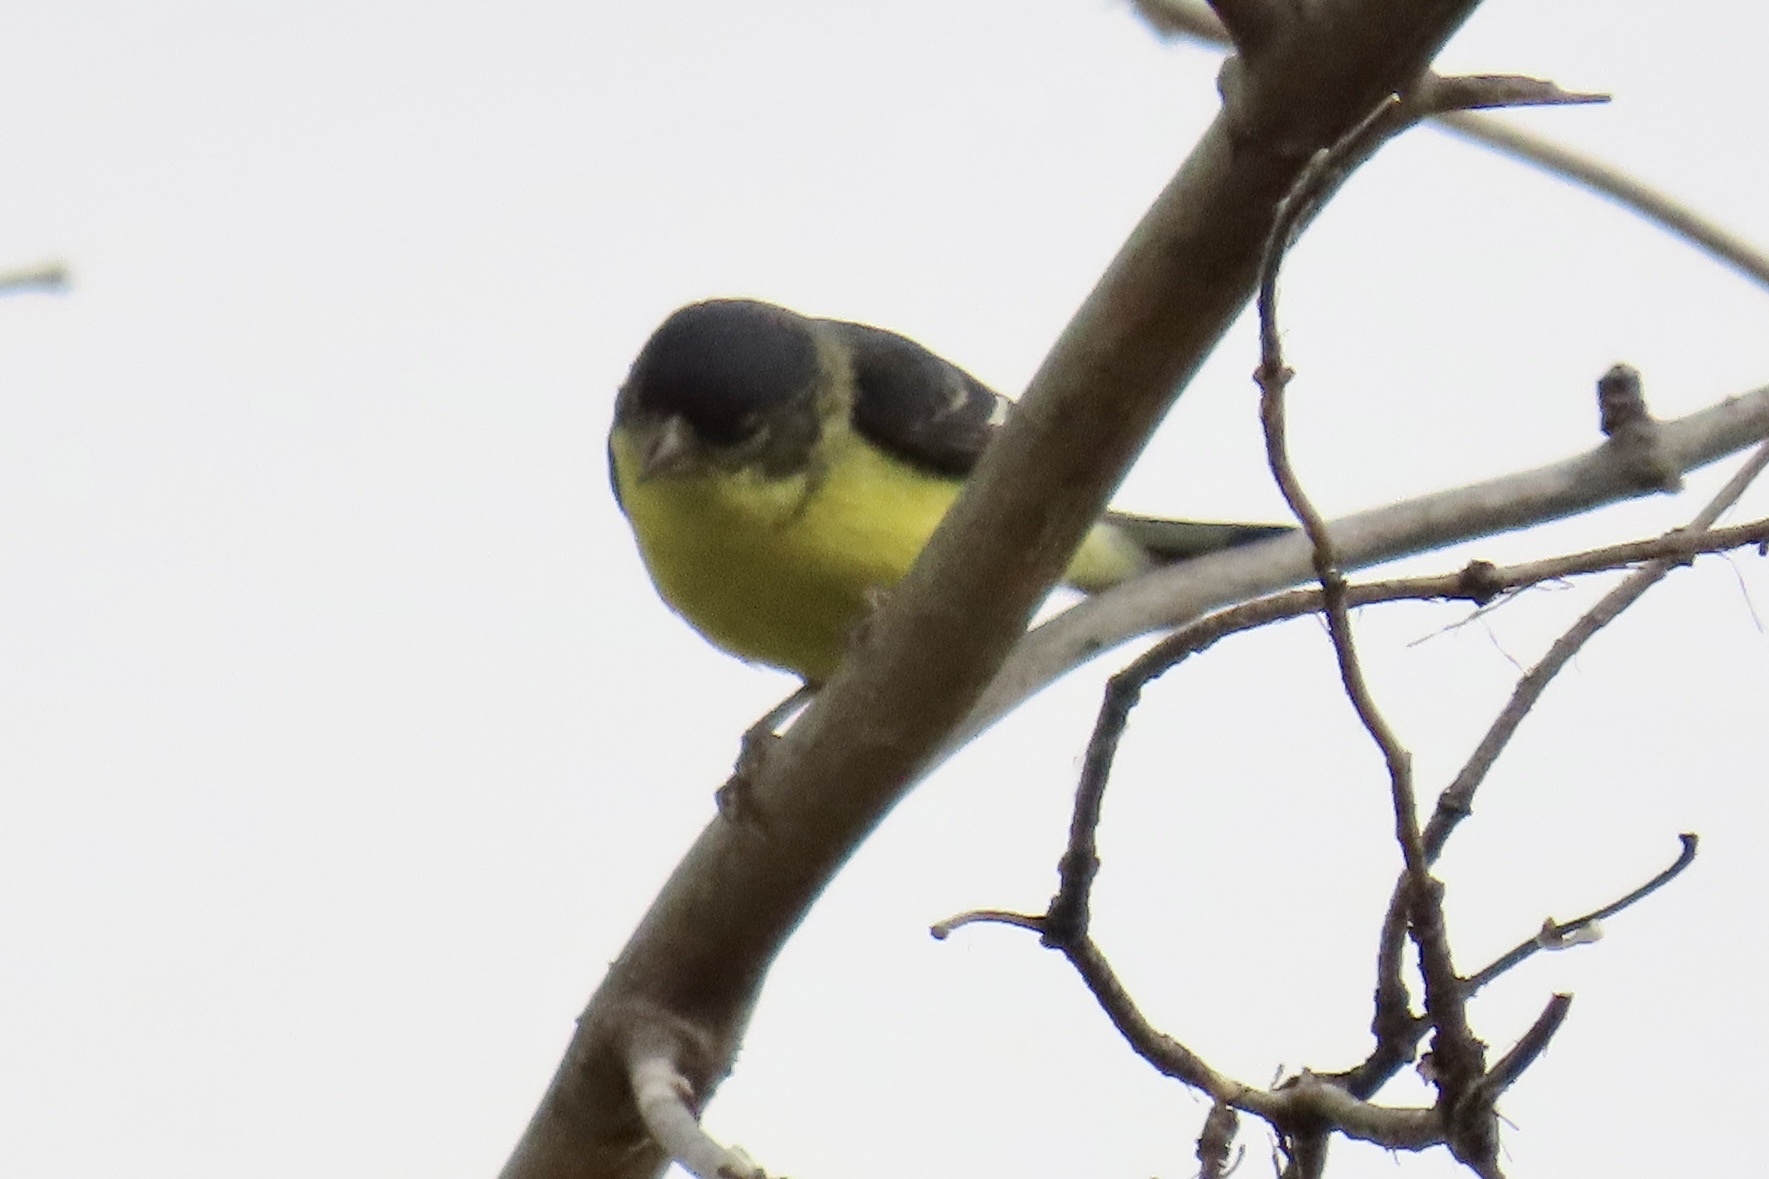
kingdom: Animalia
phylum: Chordata
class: Aves
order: Passeriformes
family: Fringillidae
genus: Spinus
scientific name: Spinus psaltria
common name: Lesser goldfinch
